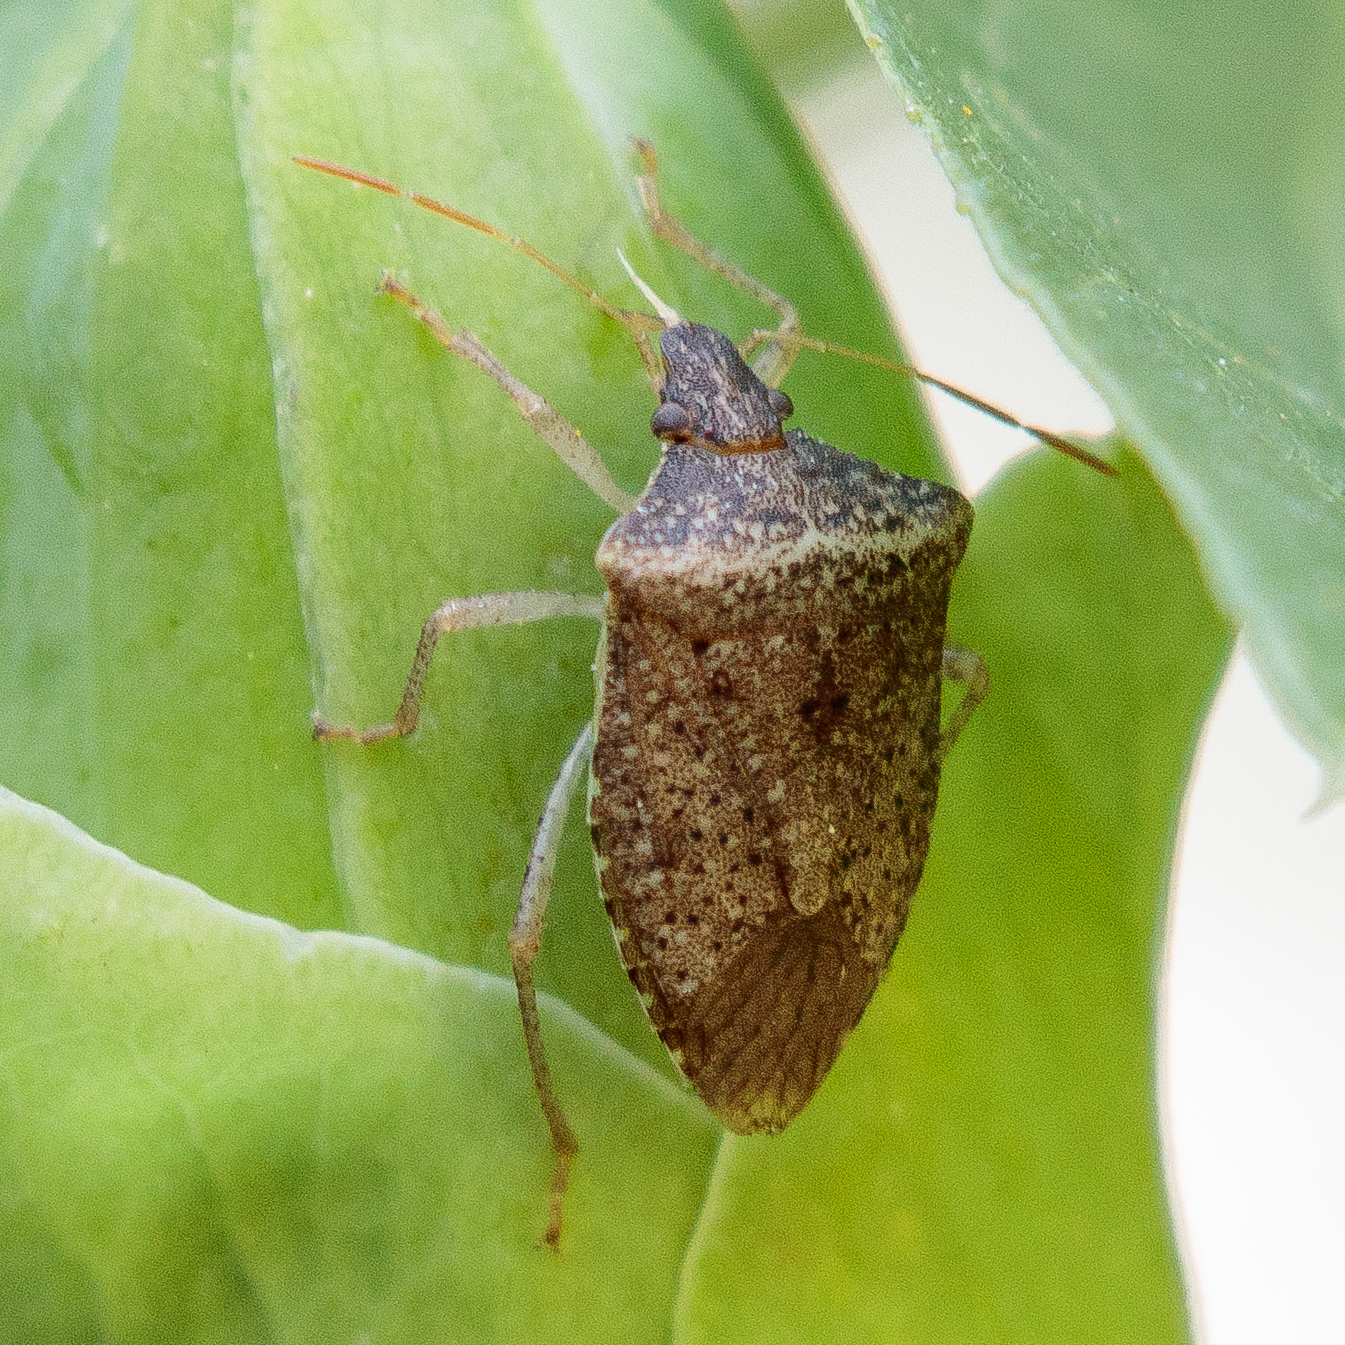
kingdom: Animalia
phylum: Arthropoda
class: Insecta
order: Hemiptera
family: Pentatomidae
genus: Euschistus
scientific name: Euschistus obscurus
